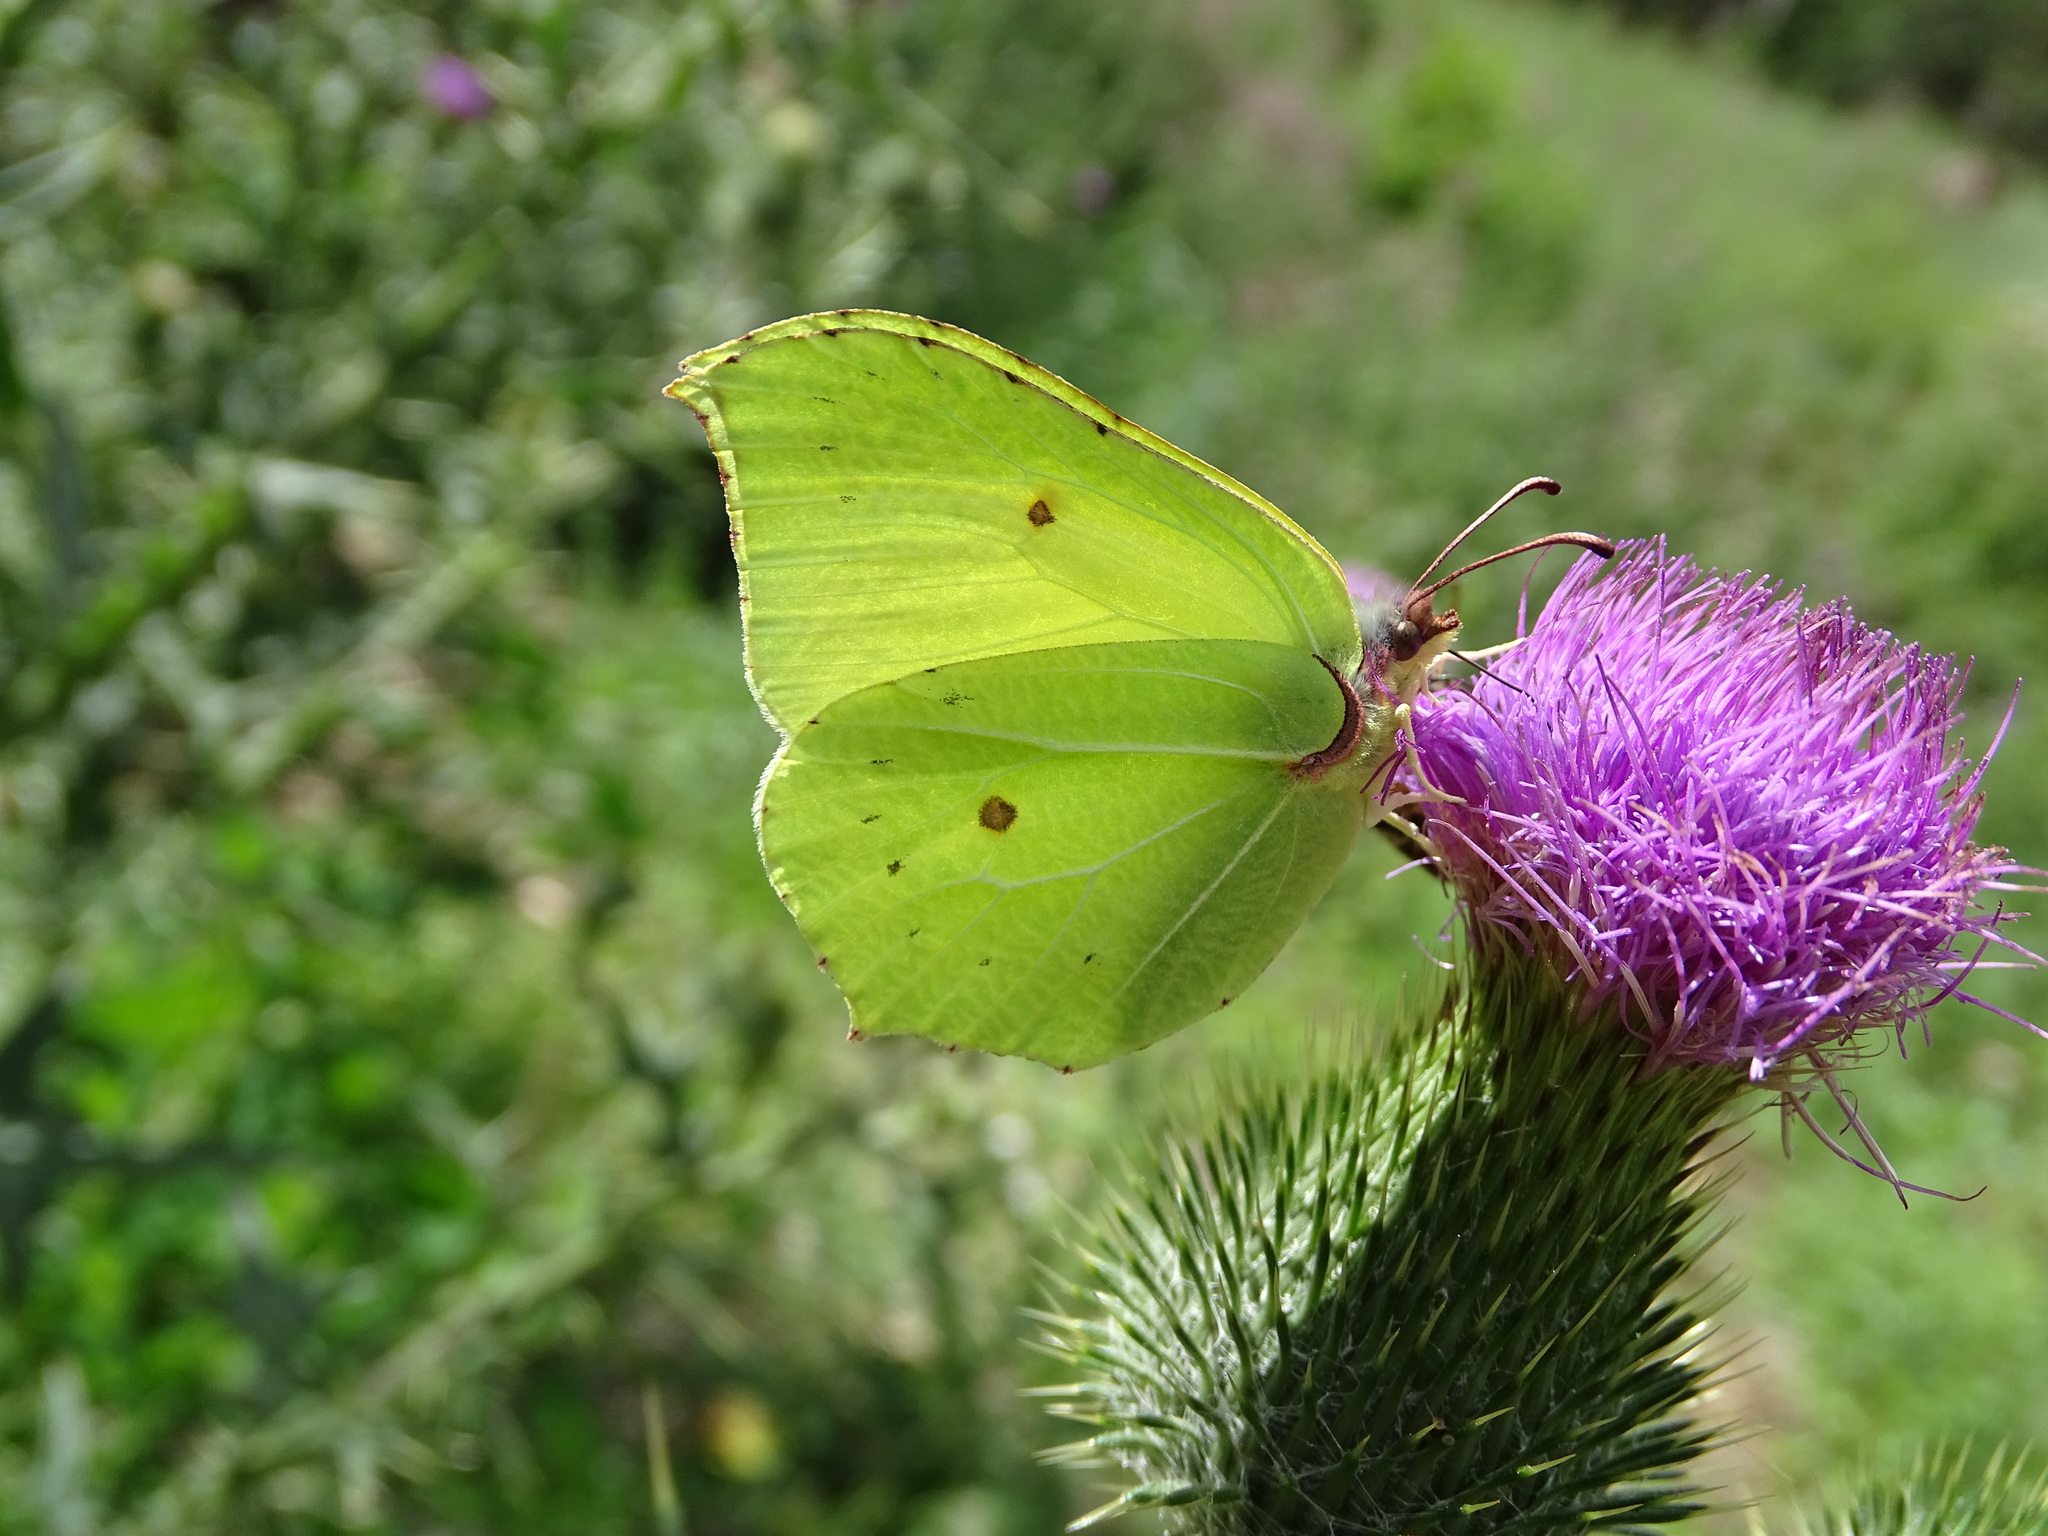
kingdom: Animalia
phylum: Arthropoda
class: Insecta
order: Lepidoptera
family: Pieridae
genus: Gonepteryx
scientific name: Gonepteryx rhamni
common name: Brimstone
